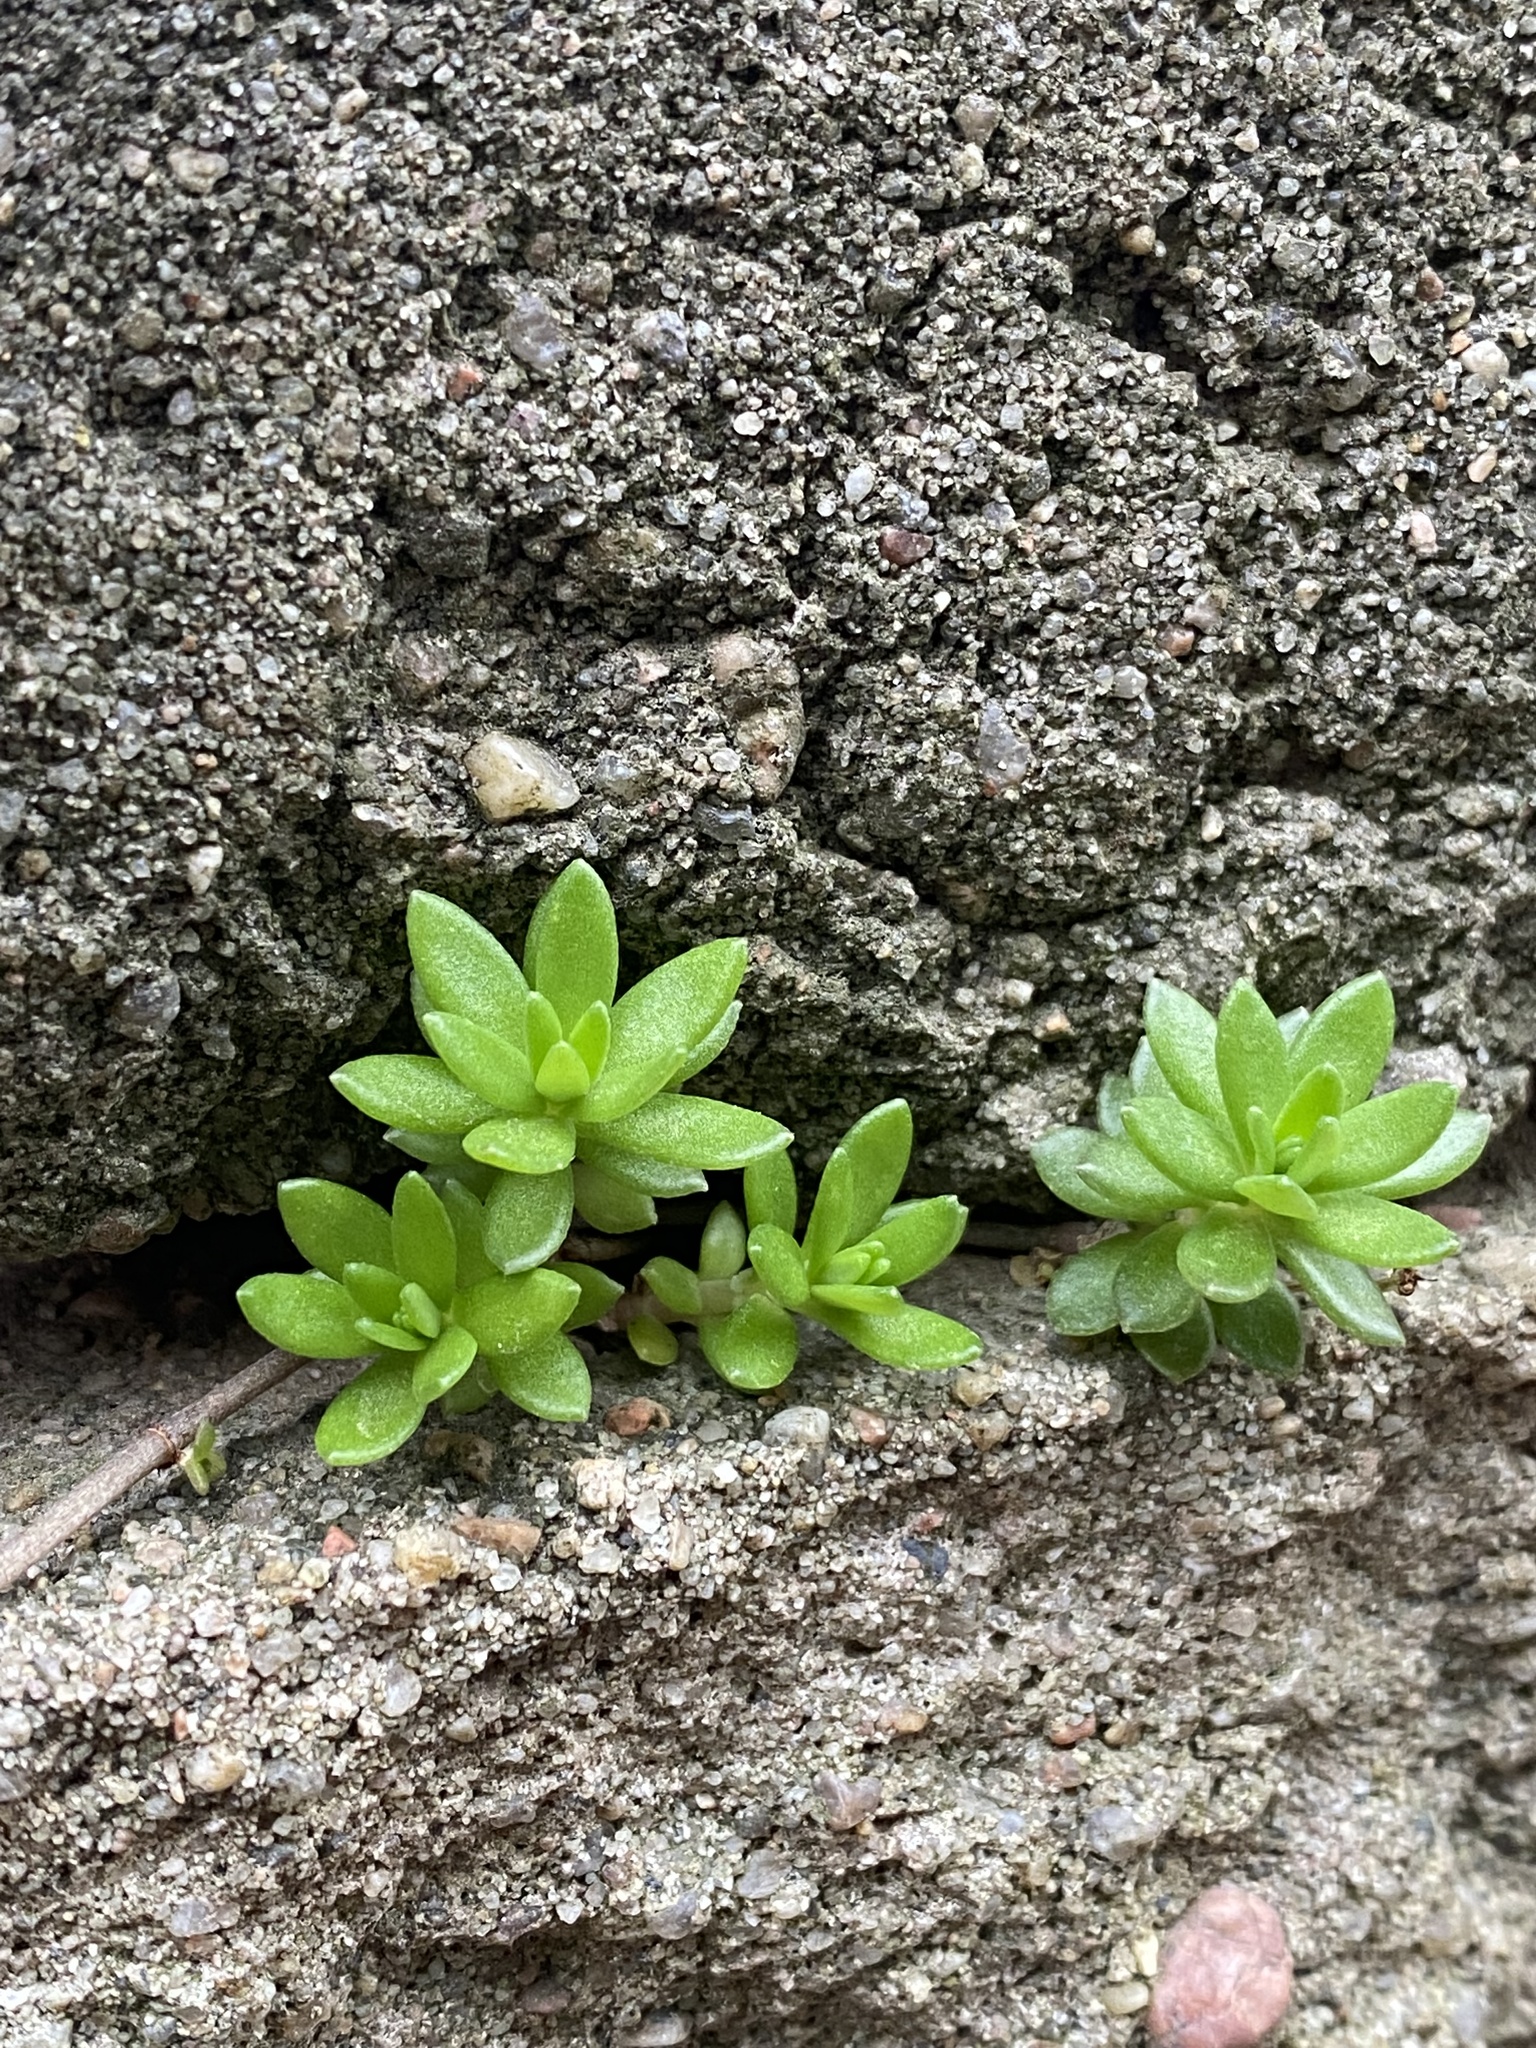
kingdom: Plantae
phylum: Tracheophyta
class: Magnoliopsida
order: Saxifragales
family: Crassulaceae
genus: Sedum
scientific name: Sedum sarmentosum
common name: Stringy stonecrop
